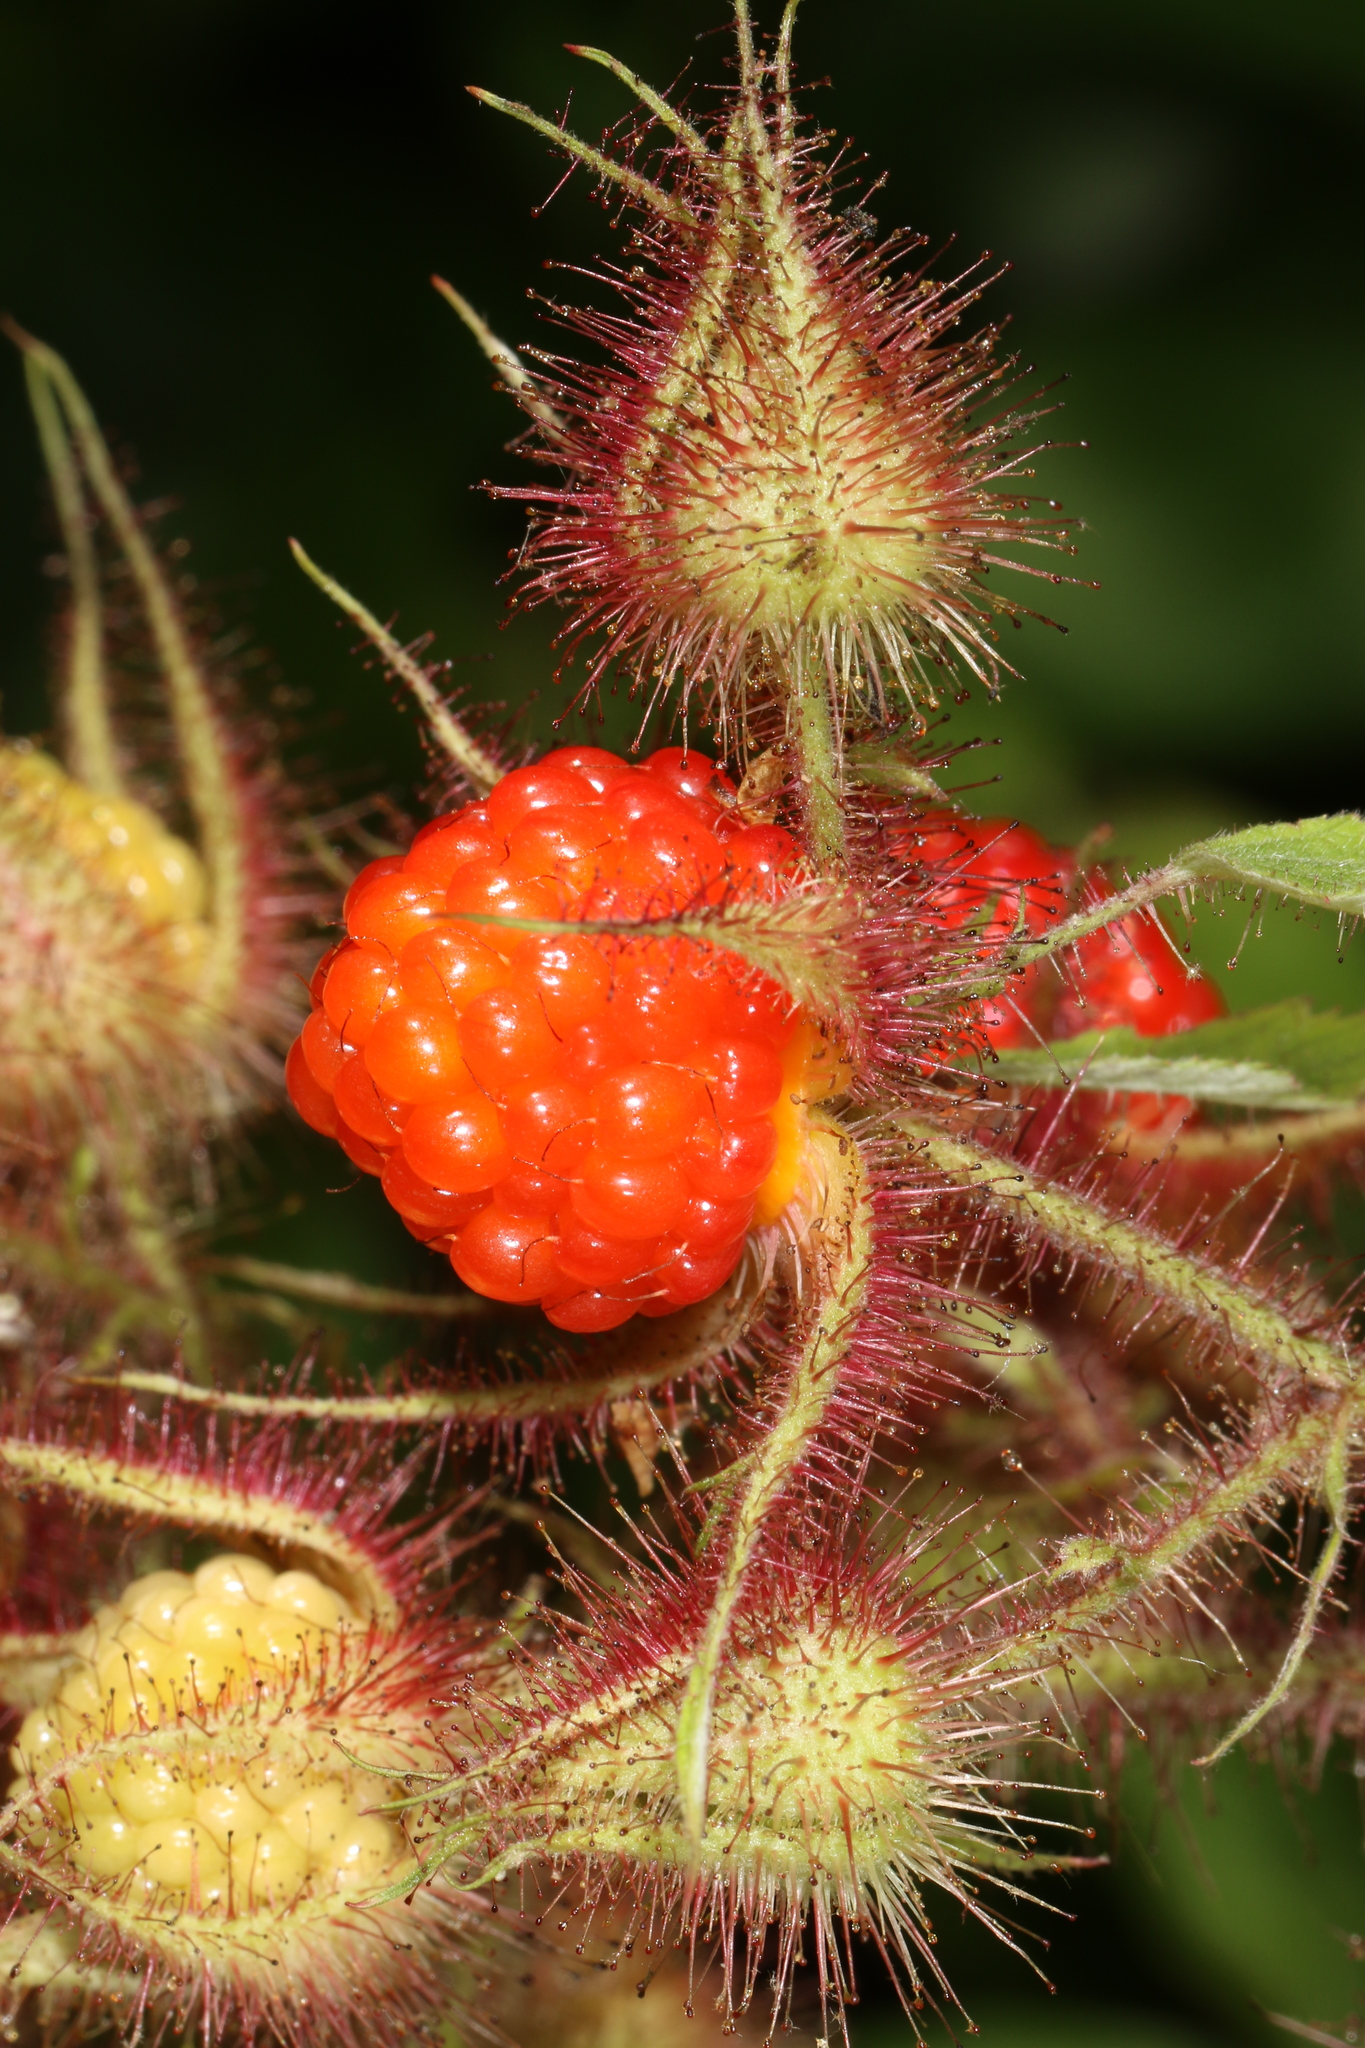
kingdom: Plantae
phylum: Tracheophyta
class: Magnoliopsida
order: Rosales
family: Rosaceae
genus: Rubus
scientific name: Rubus phoenicolasius
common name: Japanese wineberry
